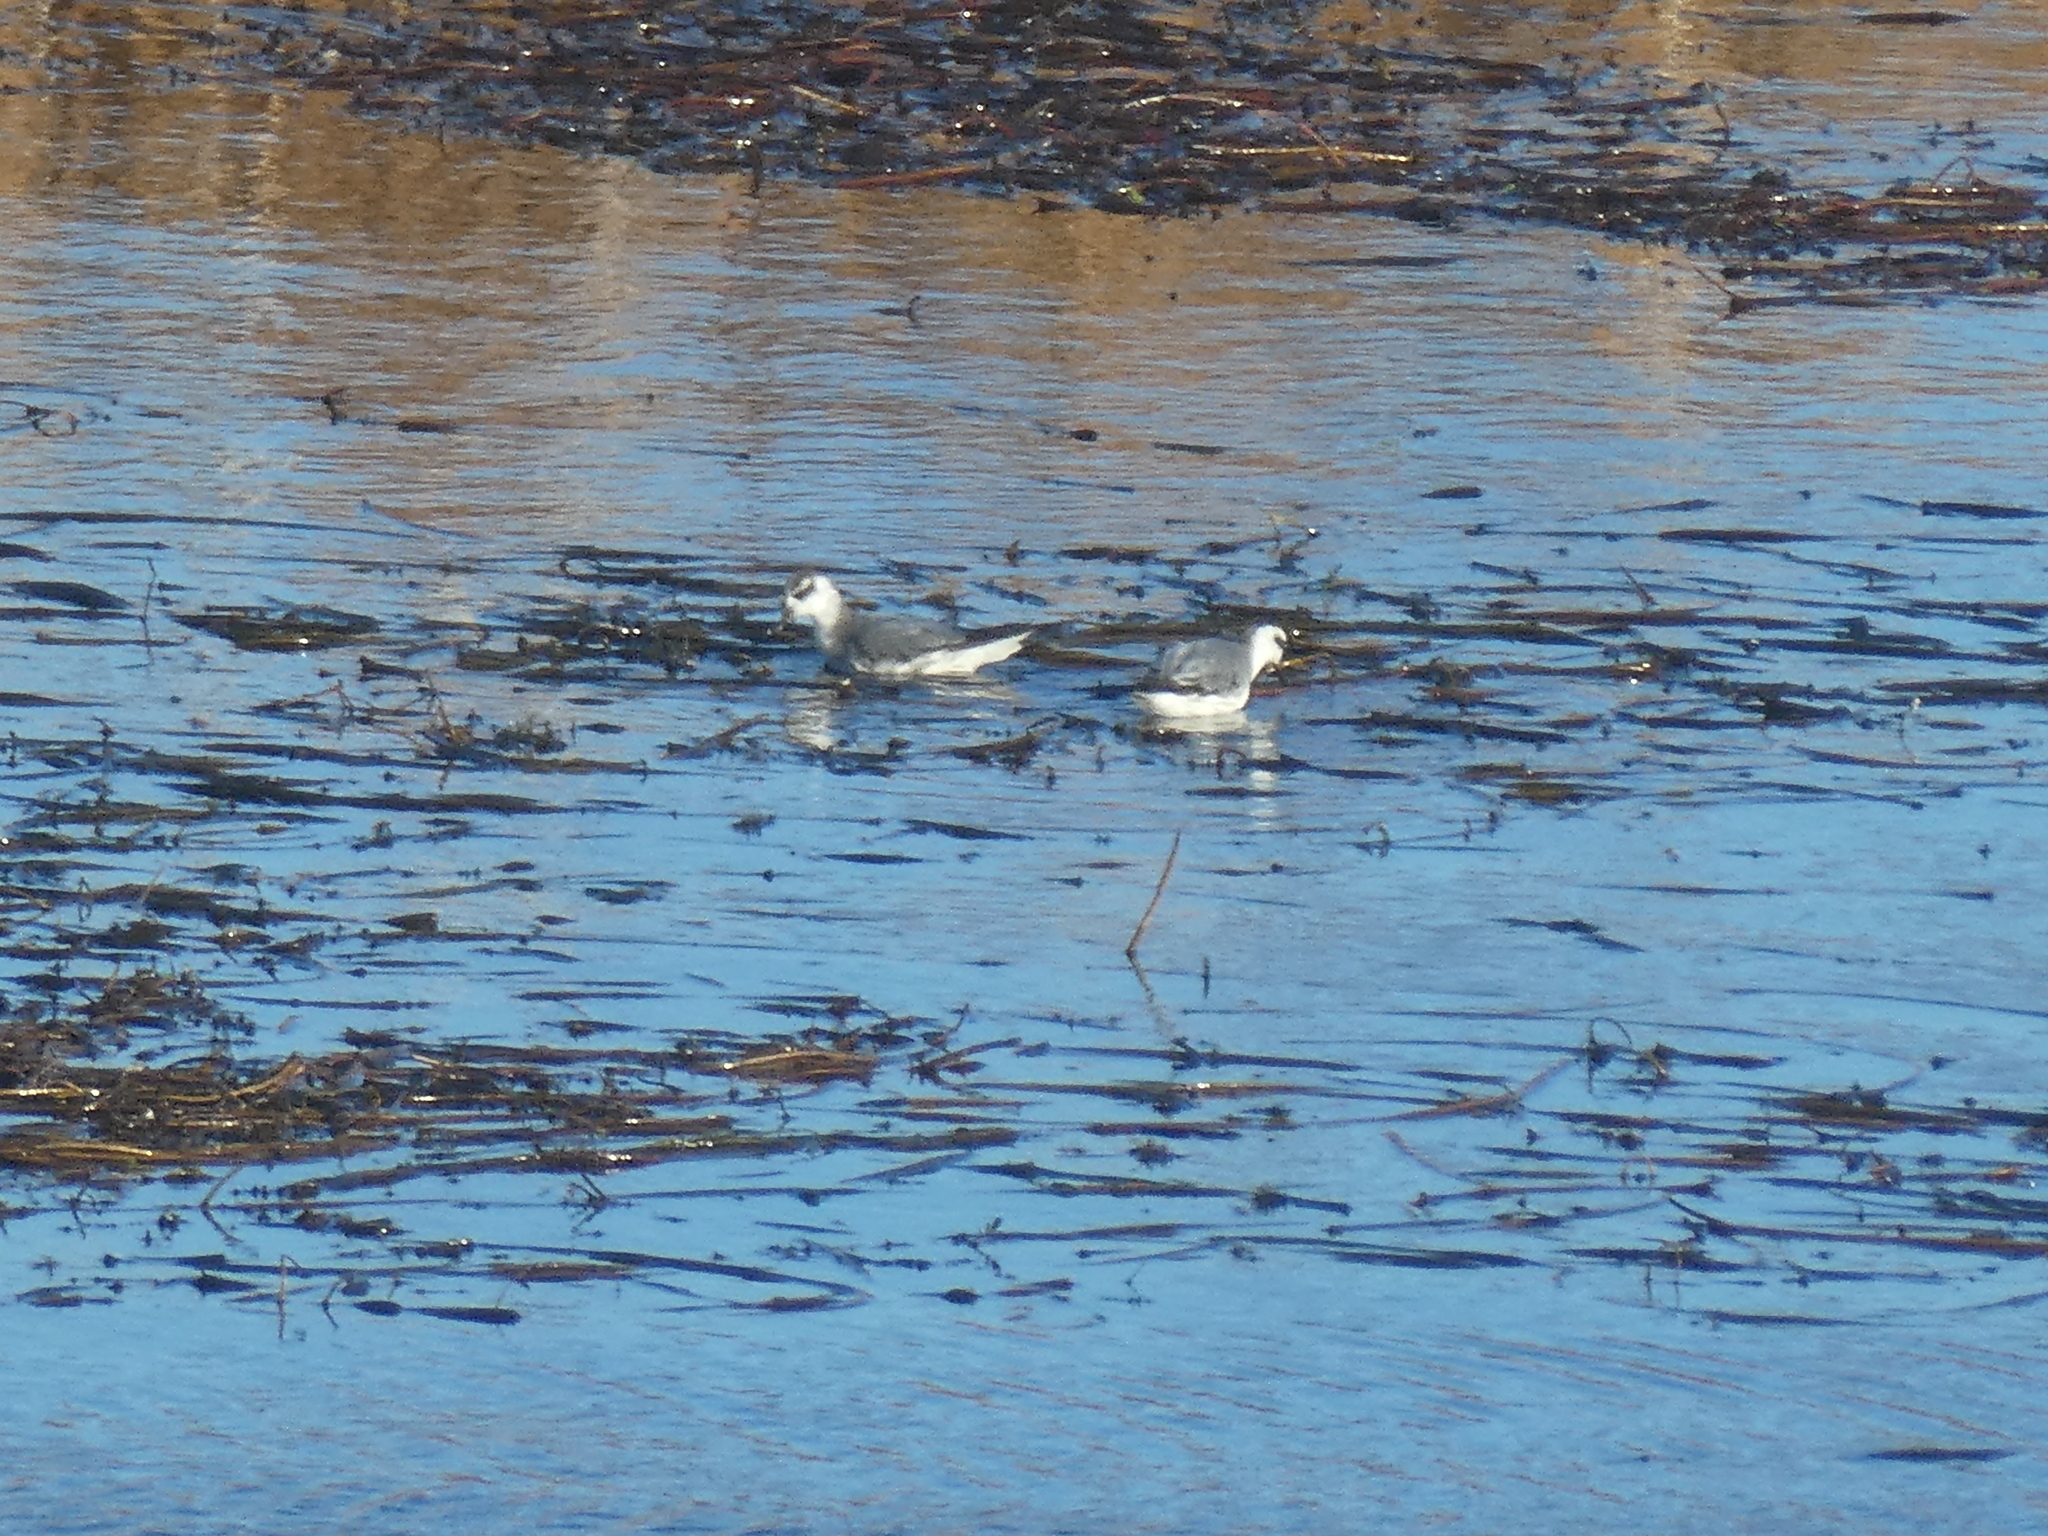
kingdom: Animalia
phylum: Chordata
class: Aves
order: Charadriiformes
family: Scolopacidae
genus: Phalaropus
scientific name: Phalaropus fulicarius
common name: Red phalarope
